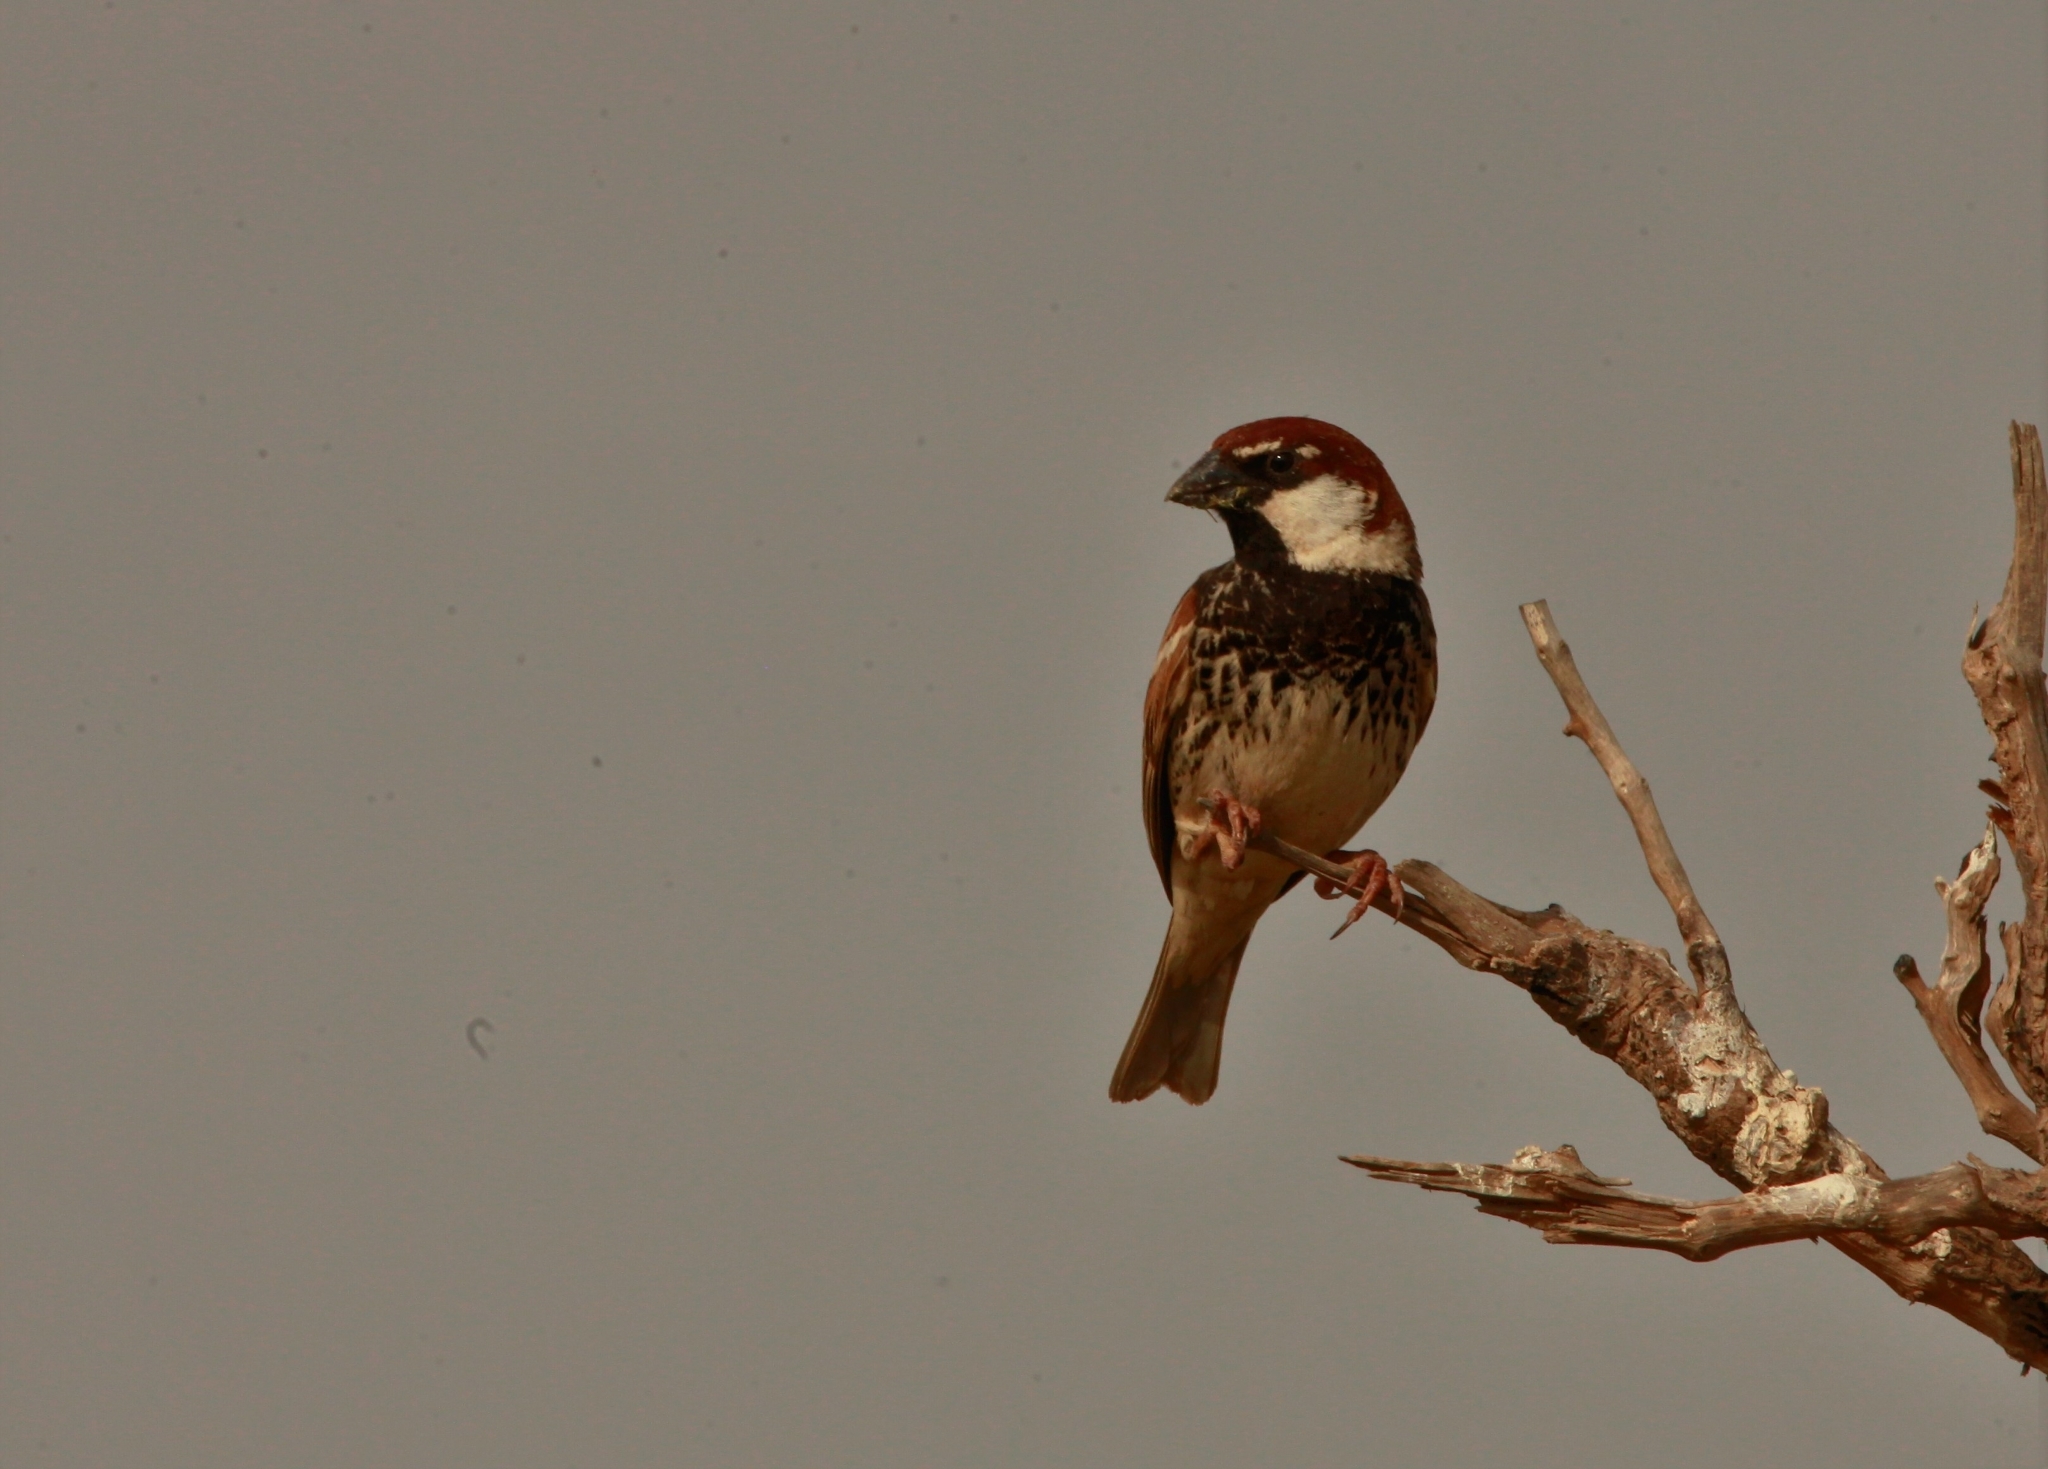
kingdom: Animalia
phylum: Chordata
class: Aves
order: Passeriformes
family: Passeridae
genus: Passer
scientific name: Passer hispaniolensis
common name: Spanish sparrow
